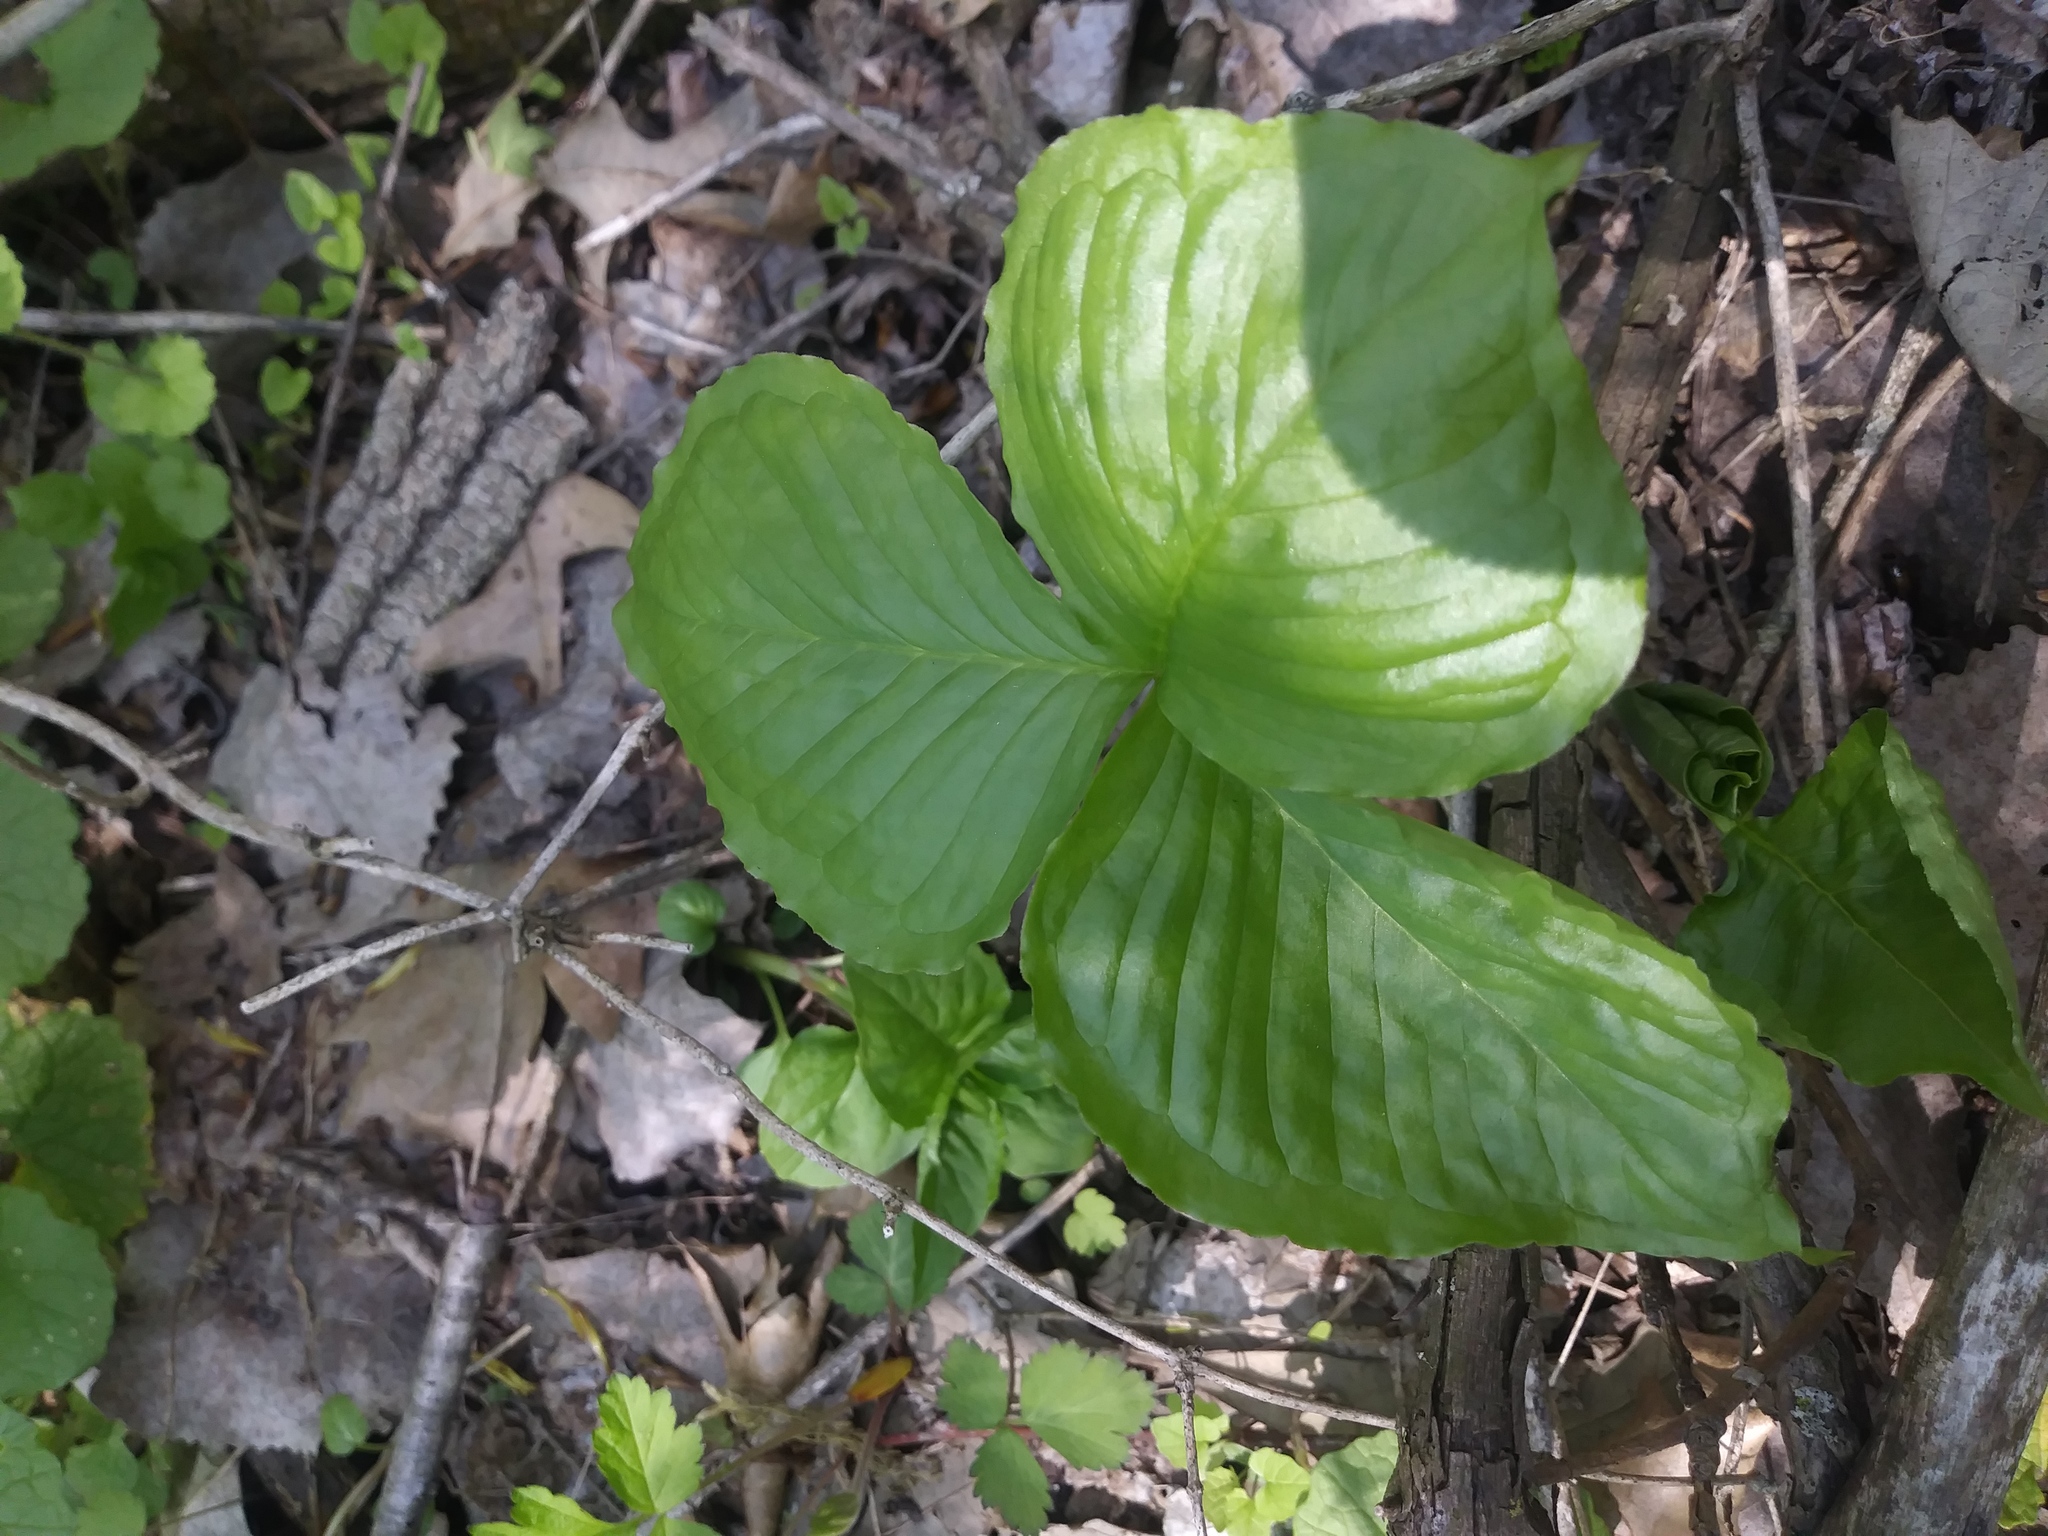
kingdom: Plantae
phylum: Tracheophyta
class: Liliopsida
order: Alismatales
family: Araceae
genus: Arisaema
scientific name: Arisaema triphyllum
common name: Jack-in-the-pulpit
